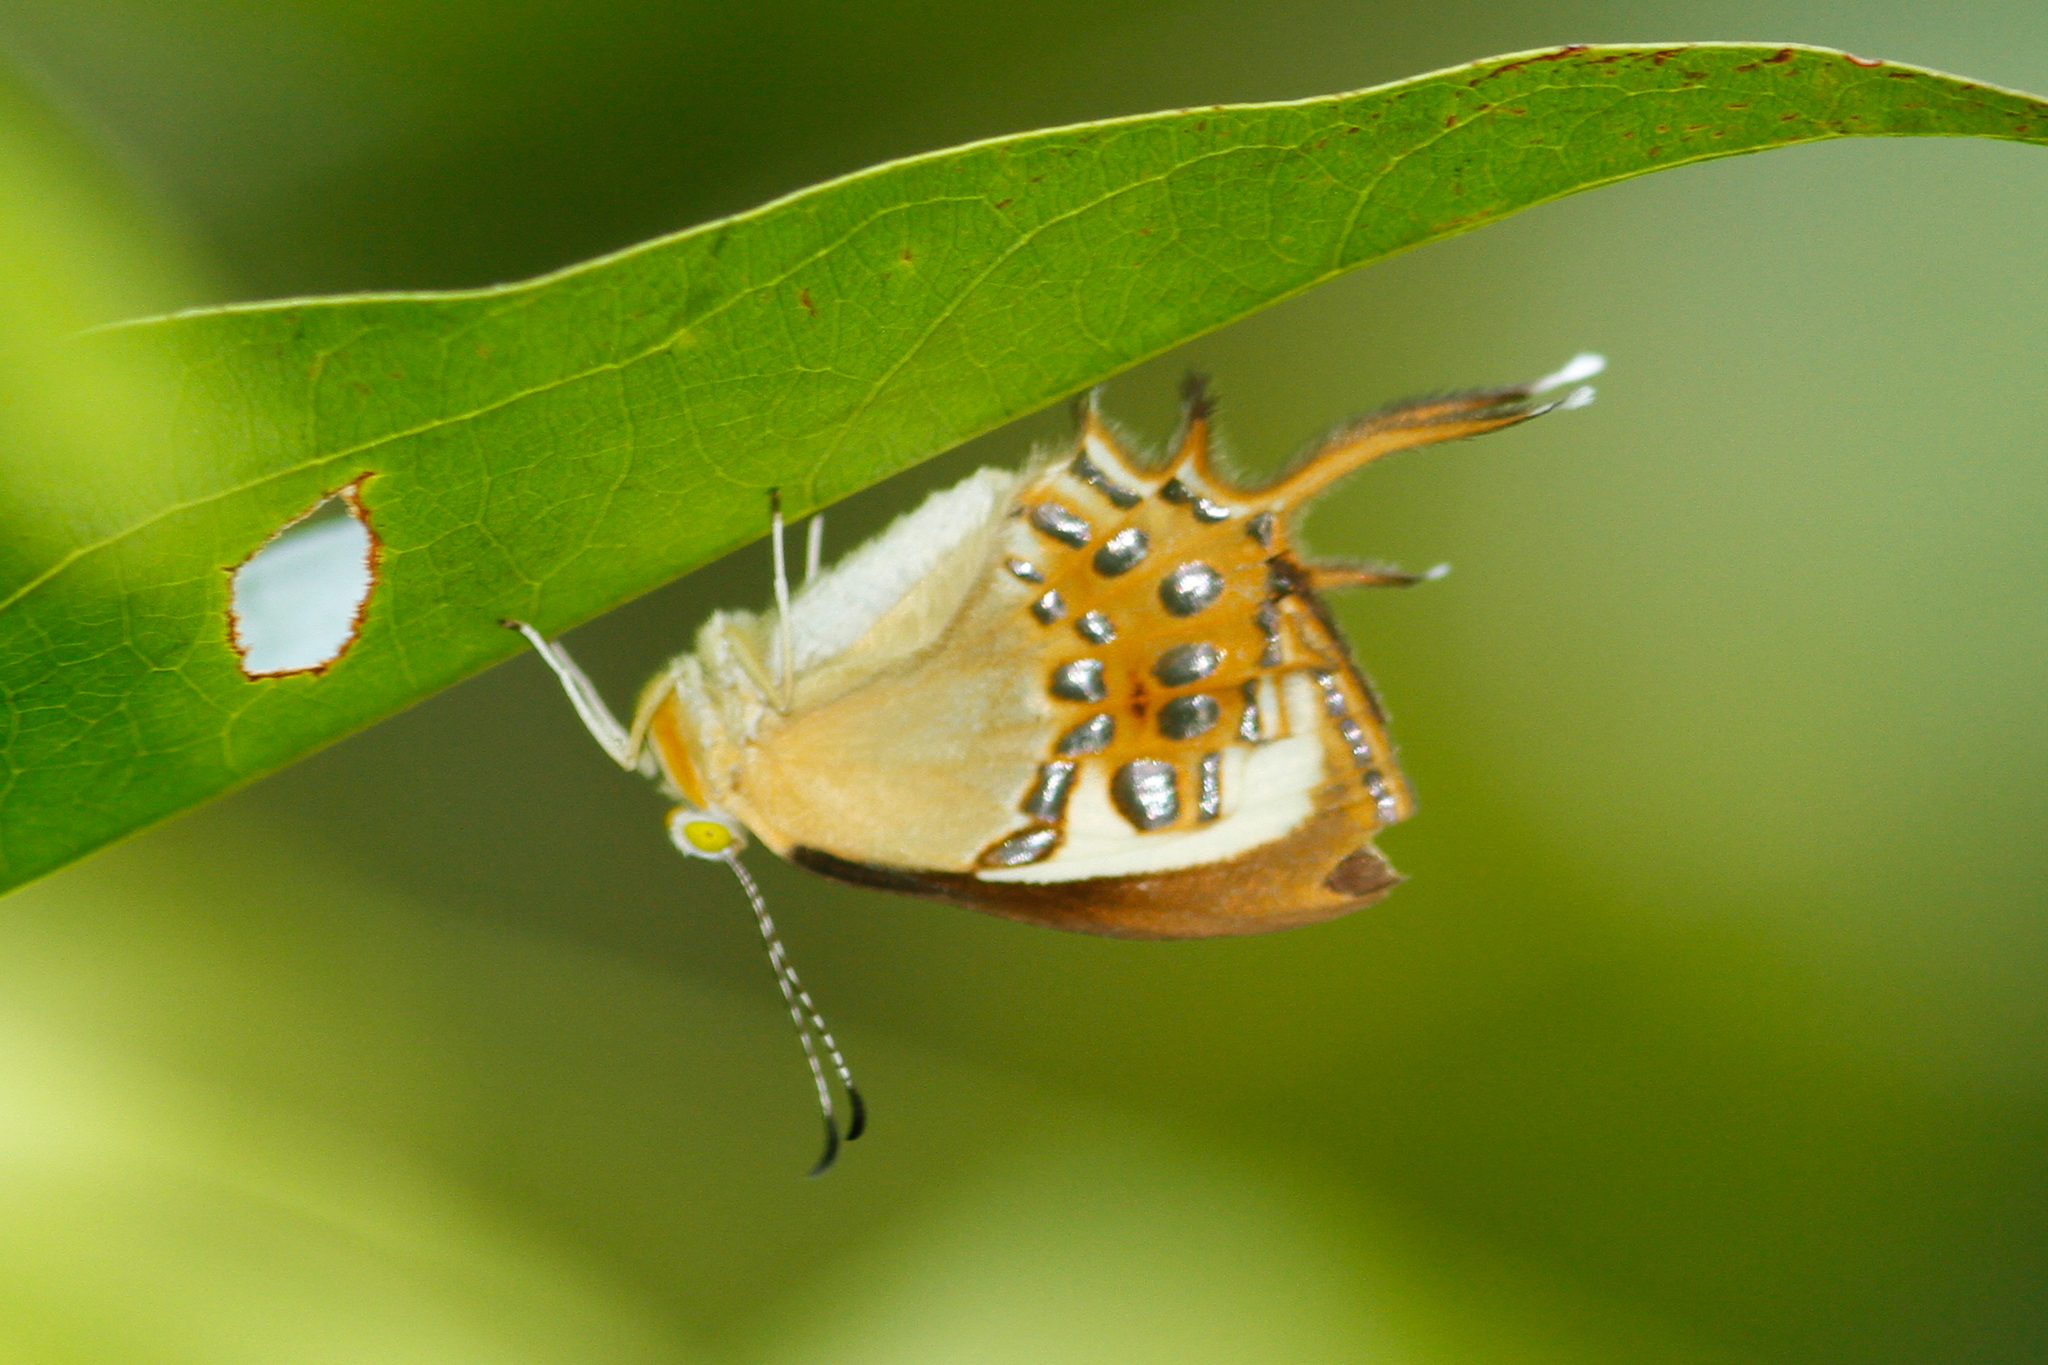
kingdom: Animalia
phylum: Arthropoda
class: Insecta
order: Lepidoptera
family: Riodinidae
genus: Helicopis
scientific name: Helicopis cupido
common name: Spangled cupid
